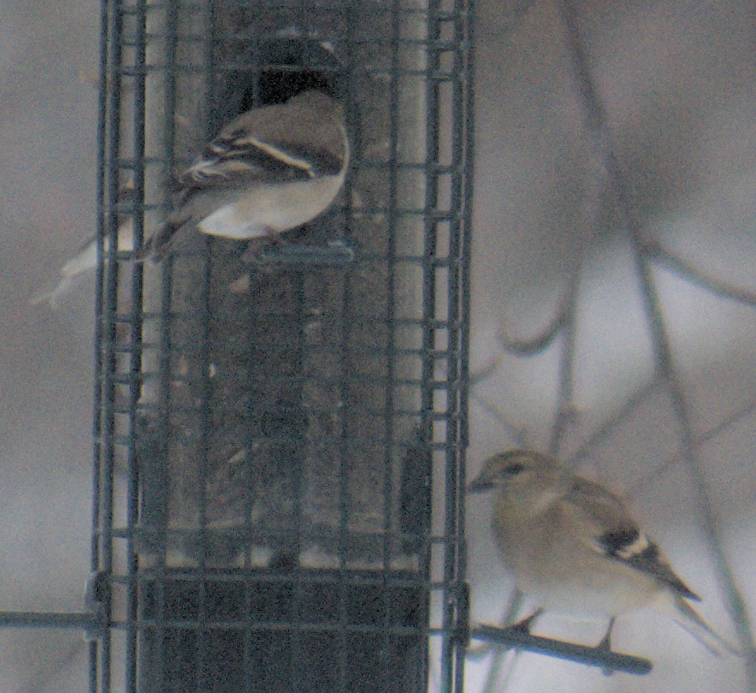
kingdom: Animalia
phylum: Chordata
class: Aves
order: Passeriformes
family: Fringillidae
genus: Spinus
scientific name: Spinus tristis
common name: American goldfinch
